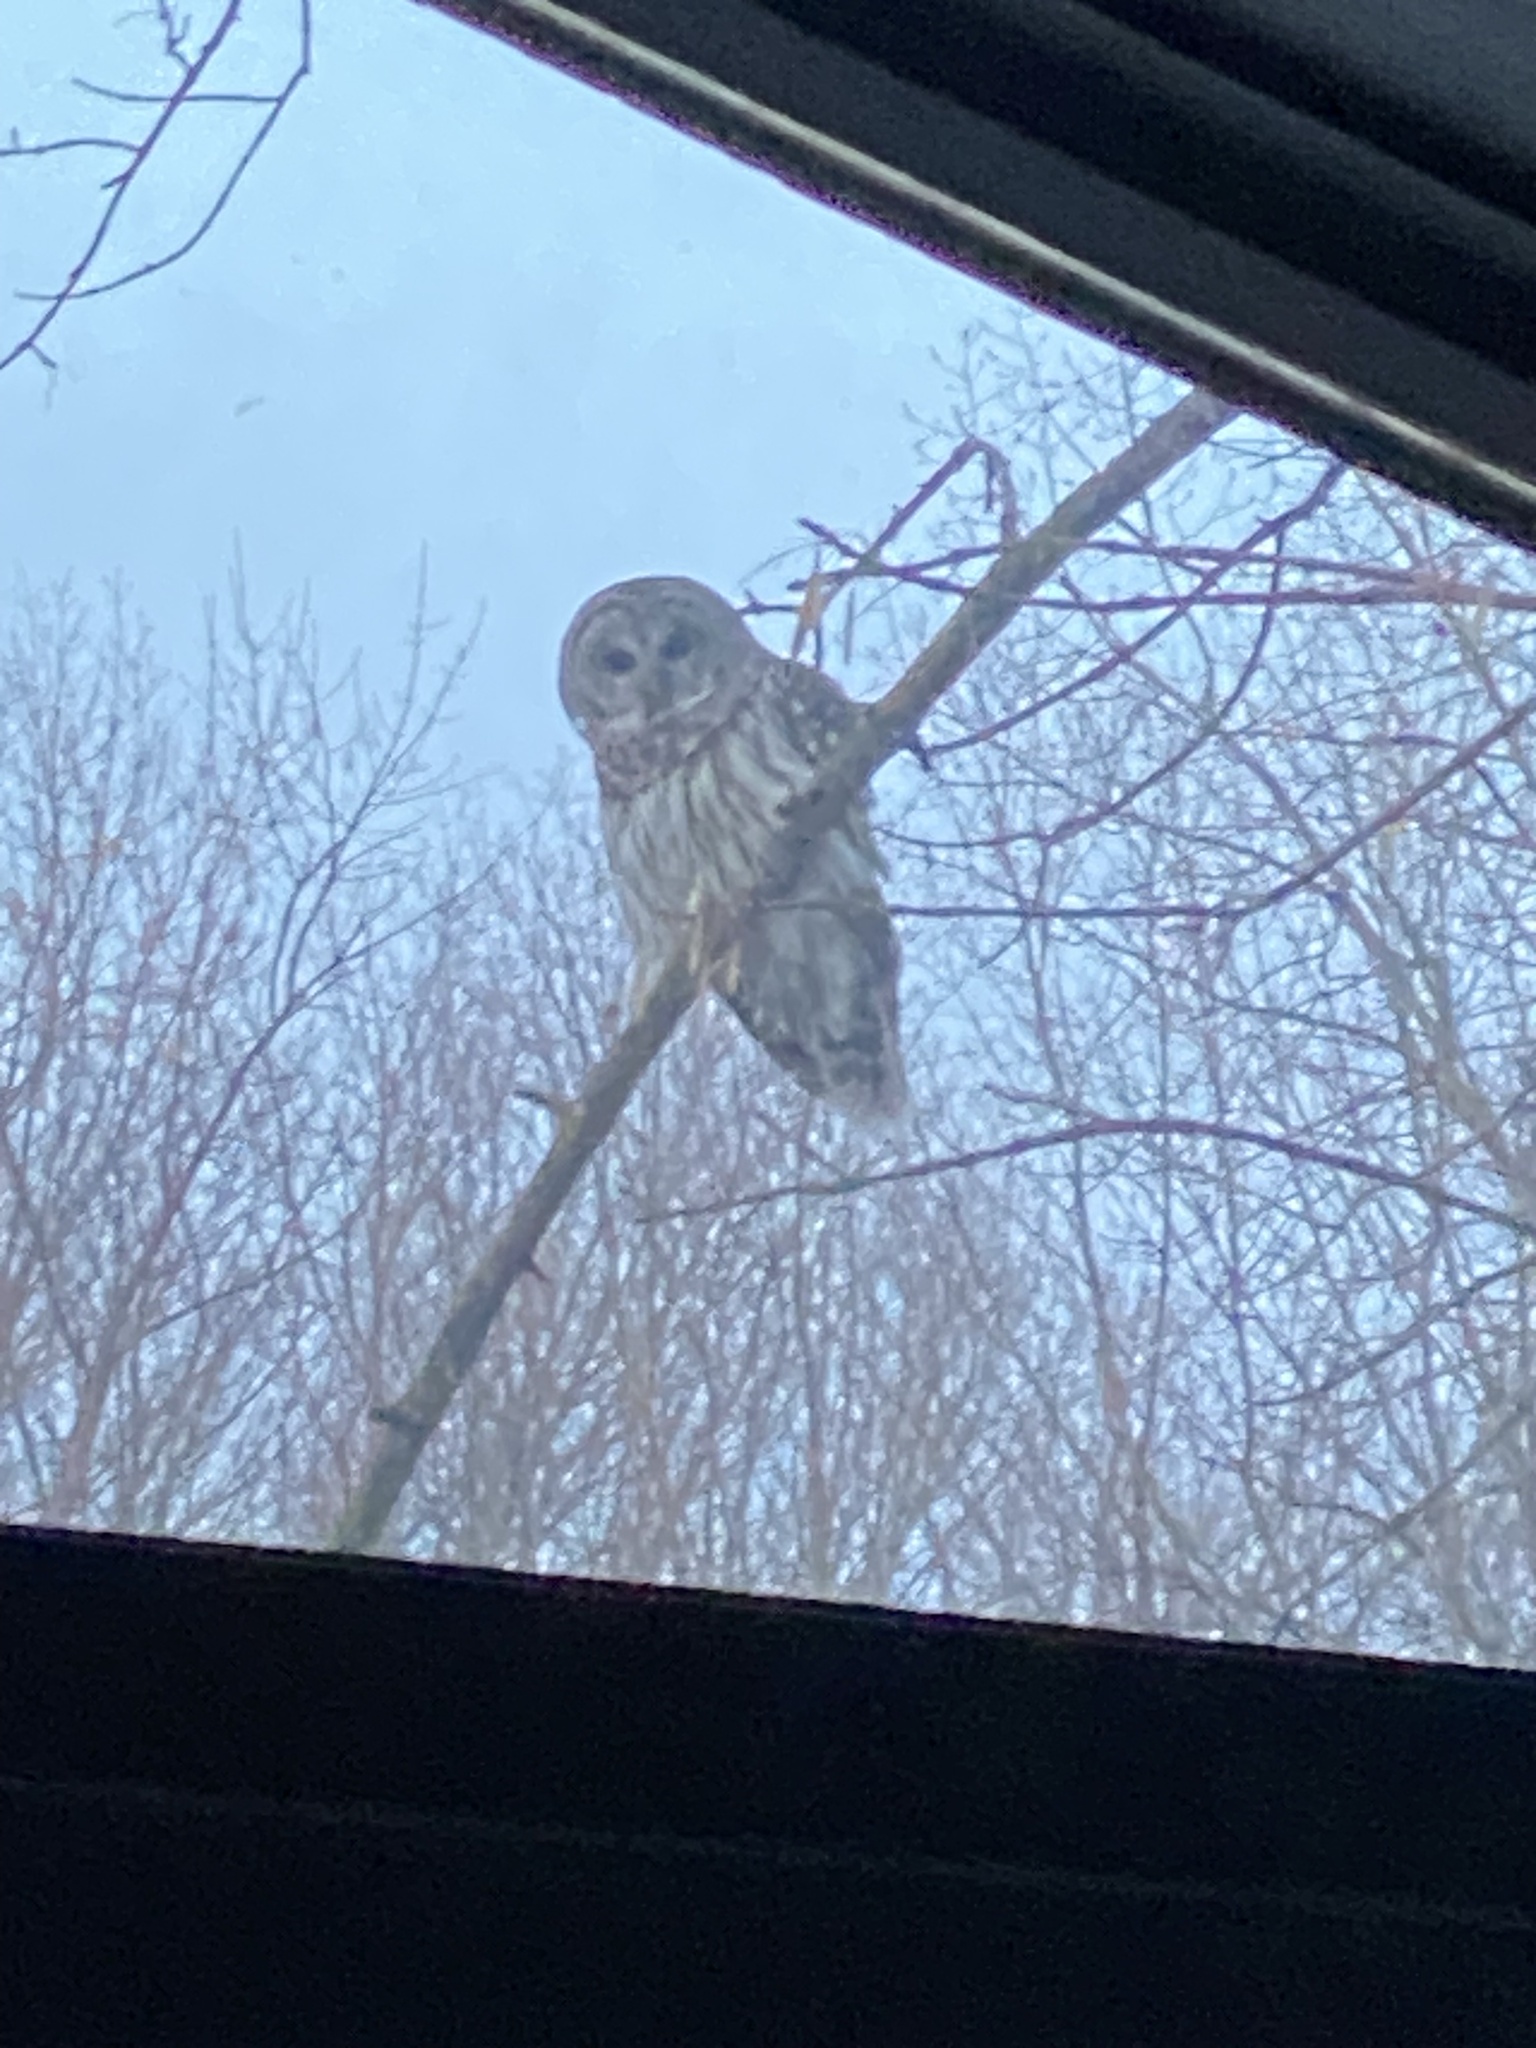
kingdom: Animalia
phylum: Chordata
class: Aves
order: Strigiformes
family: Strigidae
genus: Strix
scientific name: Strix varia
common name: Barred owl
